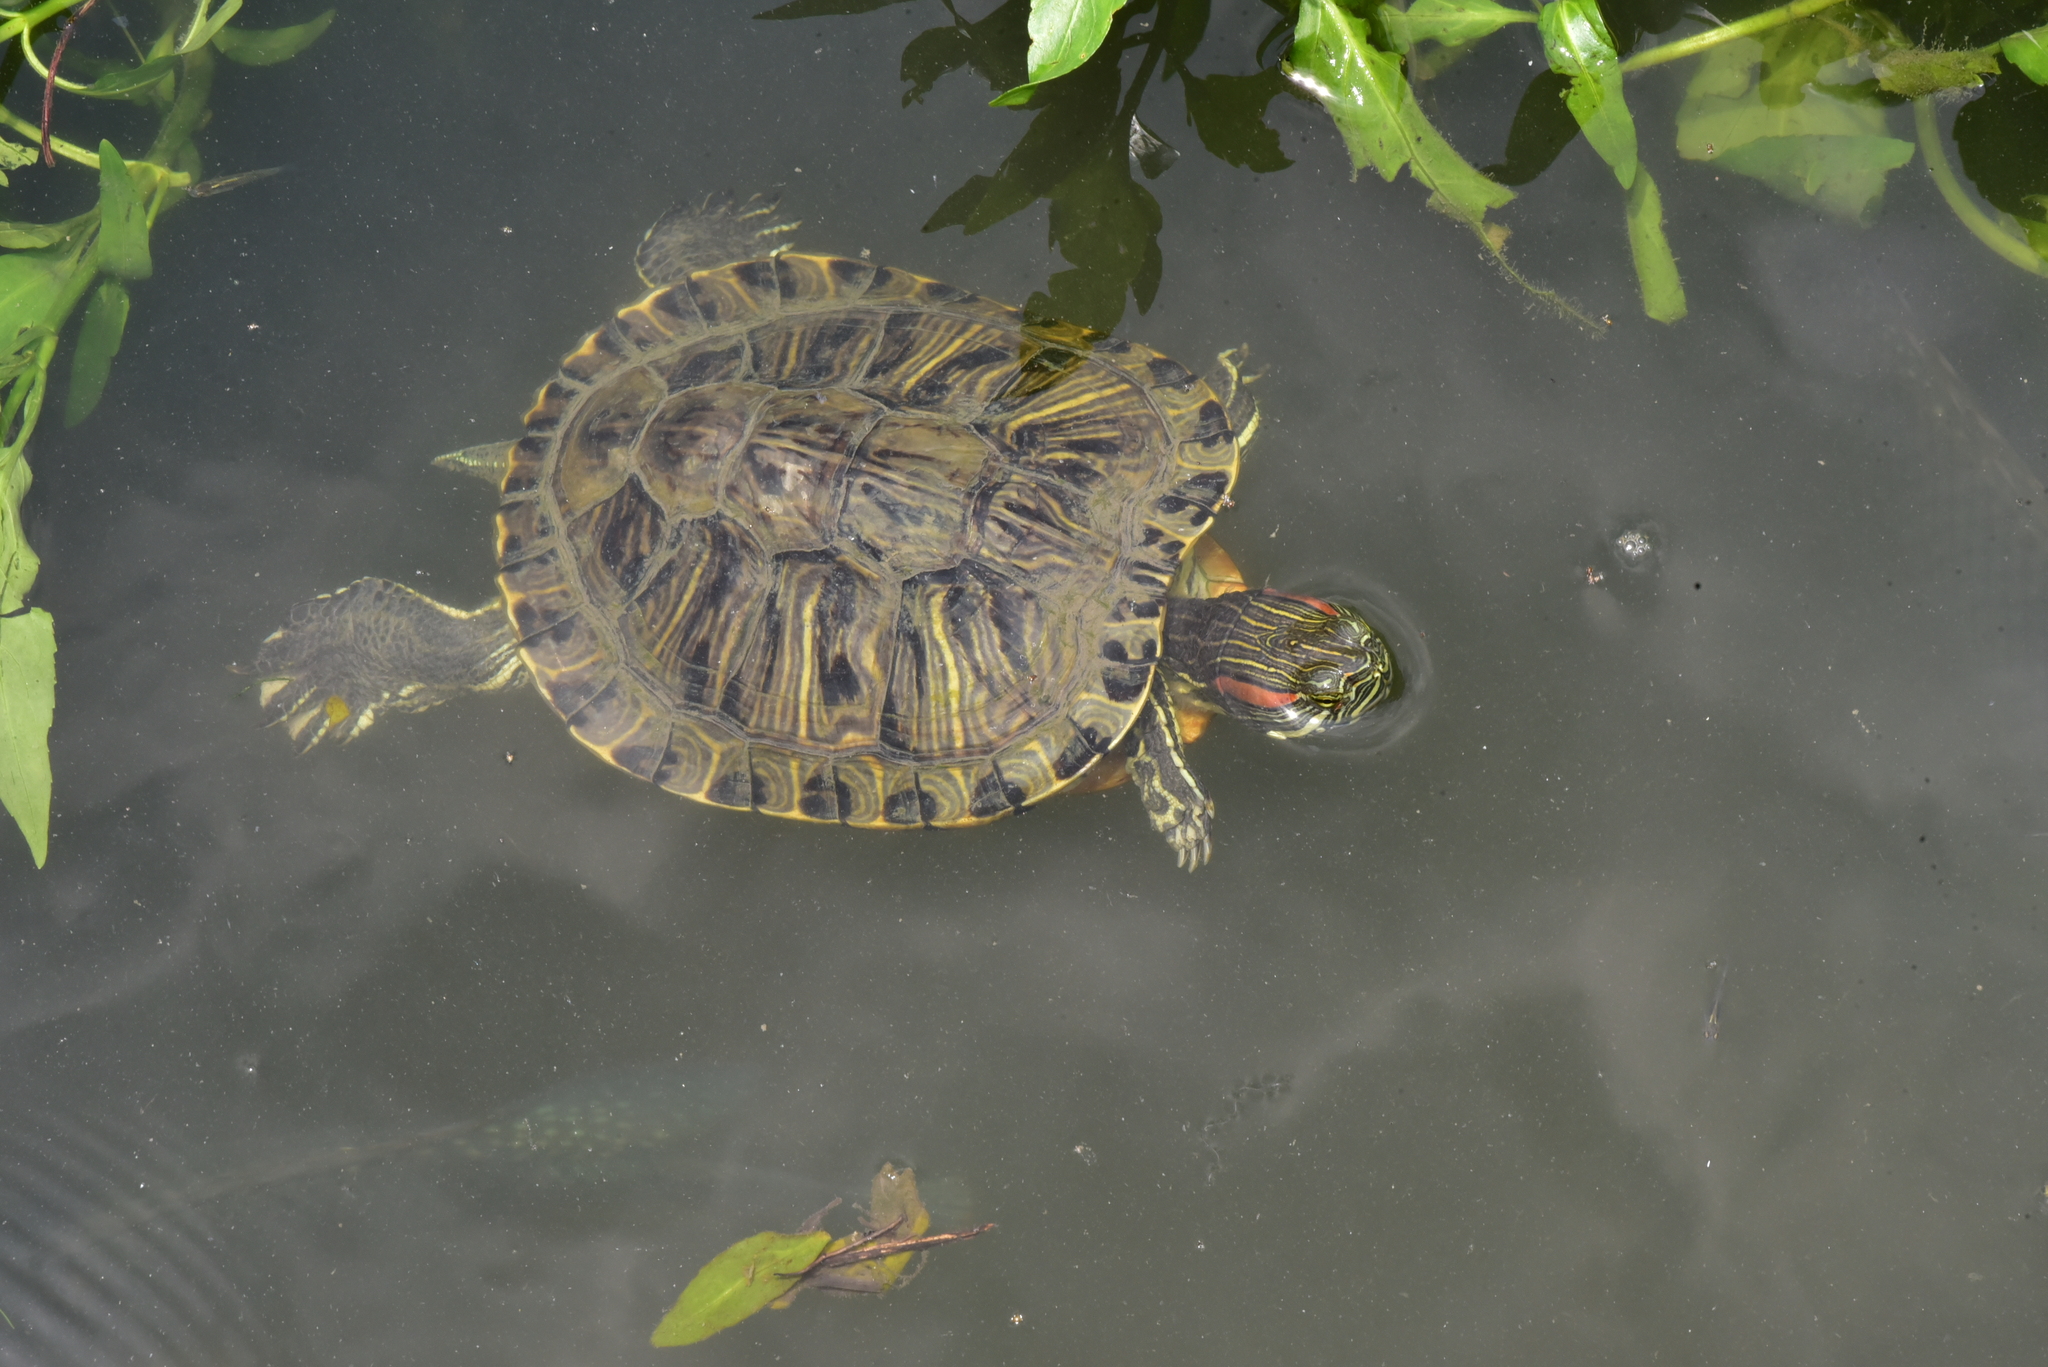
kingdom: Animalia
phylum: Chordata
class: Testudines
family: Emydidae
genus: Trachemys
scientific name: Trachemys scripta
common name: Slider
